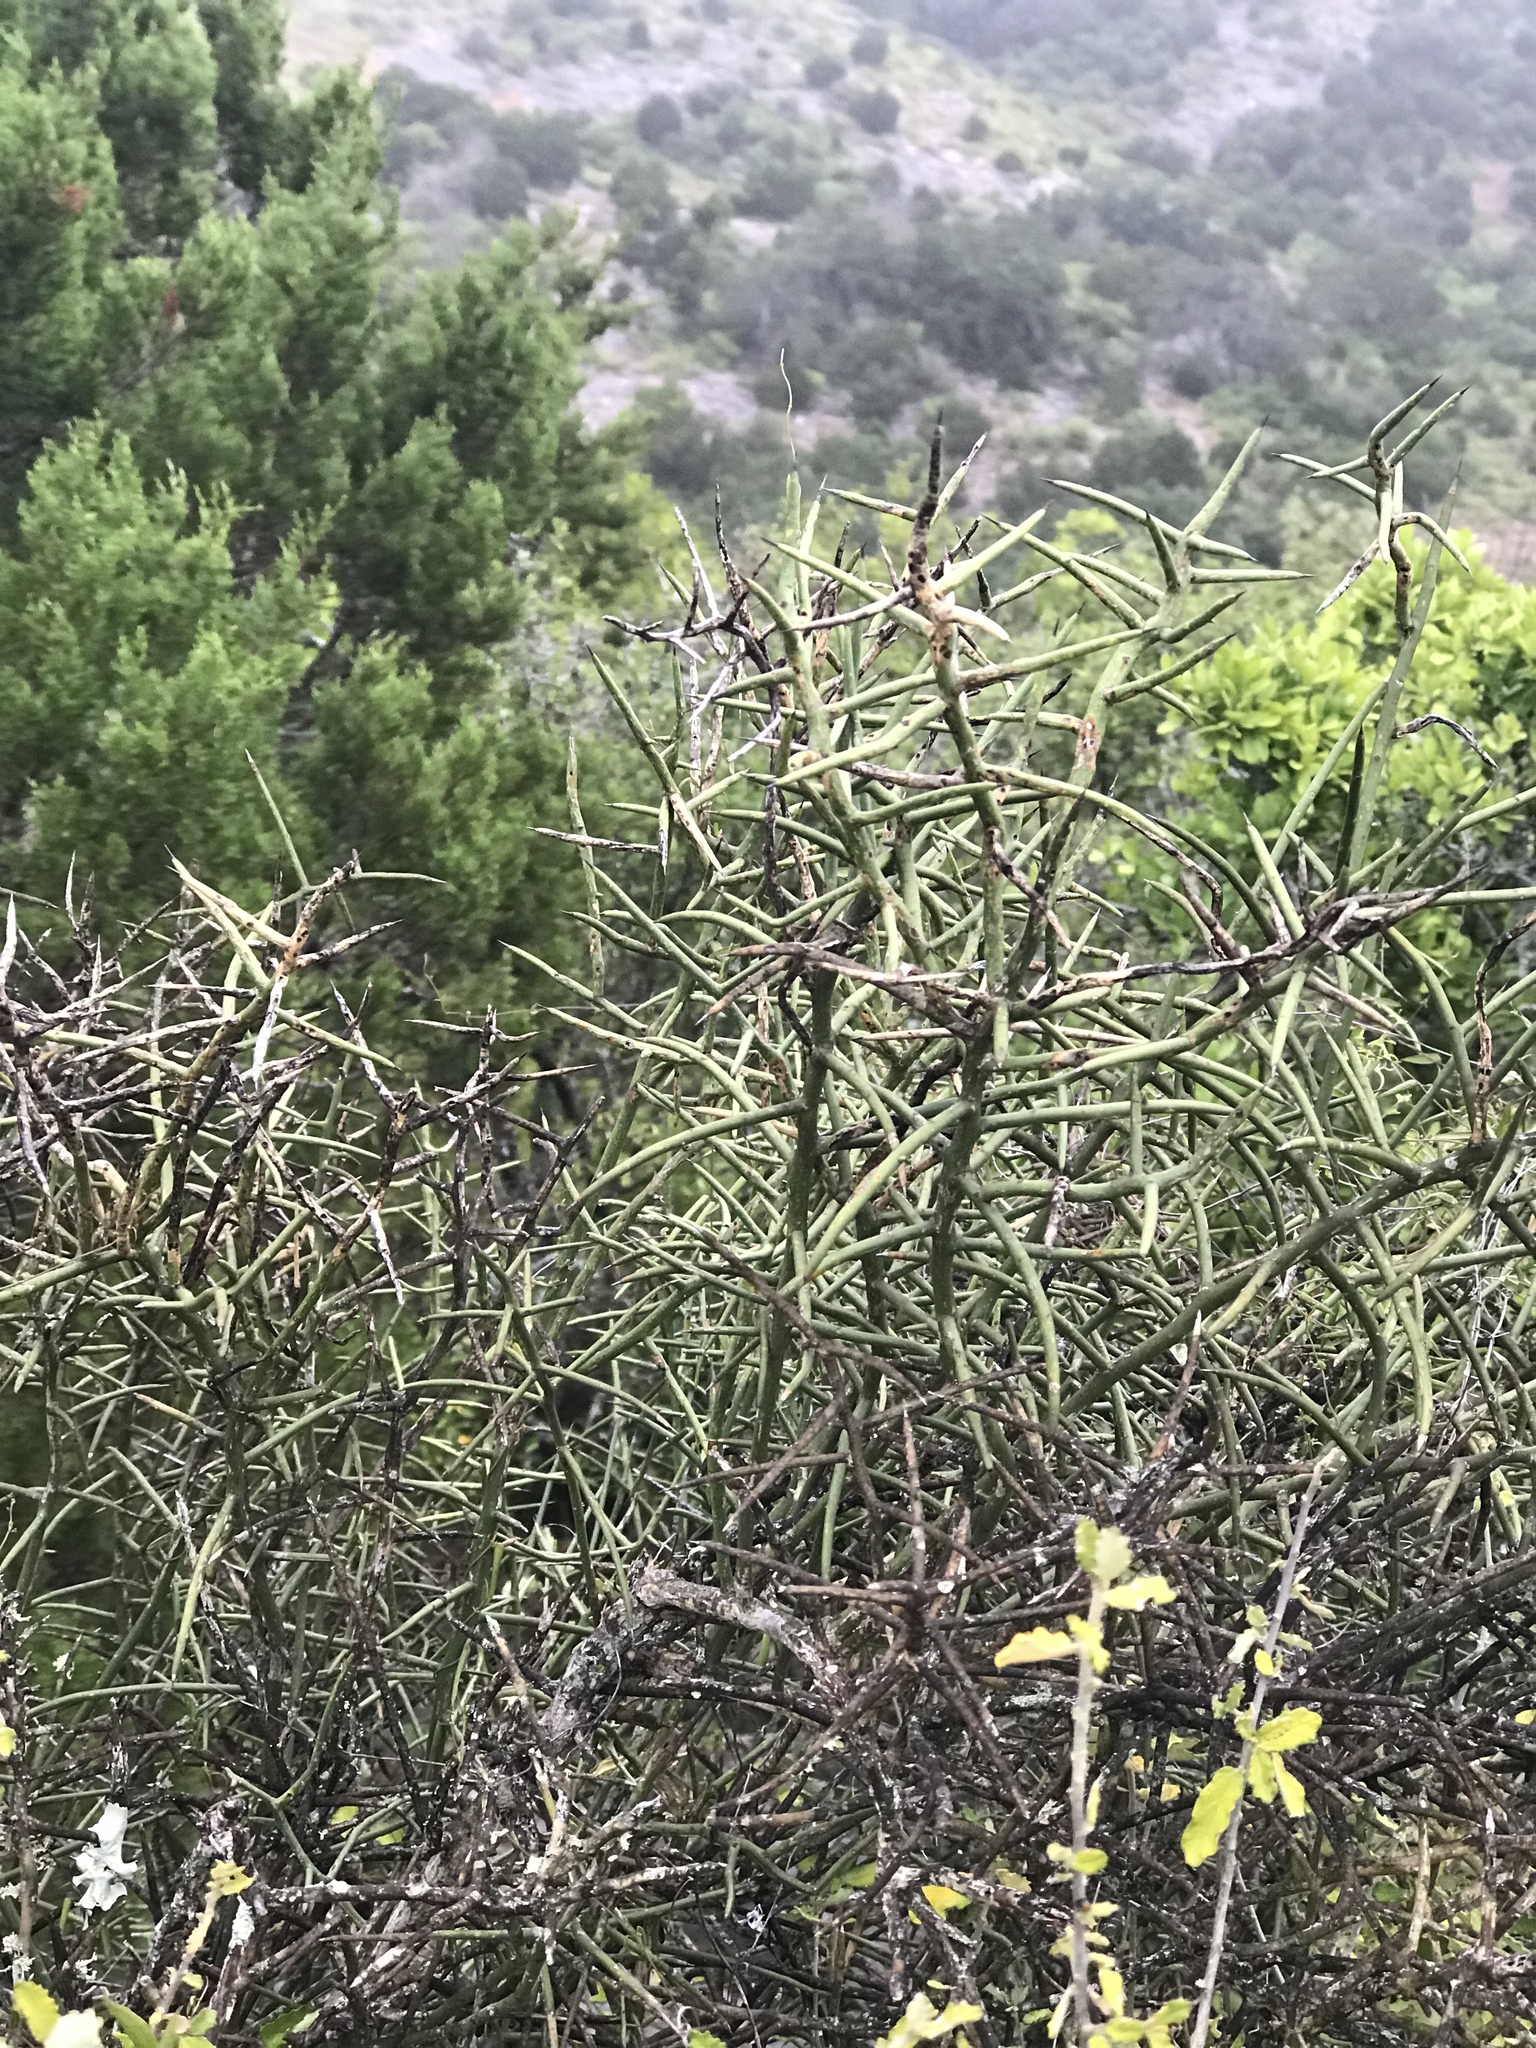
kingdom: Plantae
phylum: Tracheophyta
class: Magnoliopsida
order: Brassicales
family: Koeberliniaceae
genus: Koeberlinia
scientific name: Koeberlinia spinosa
